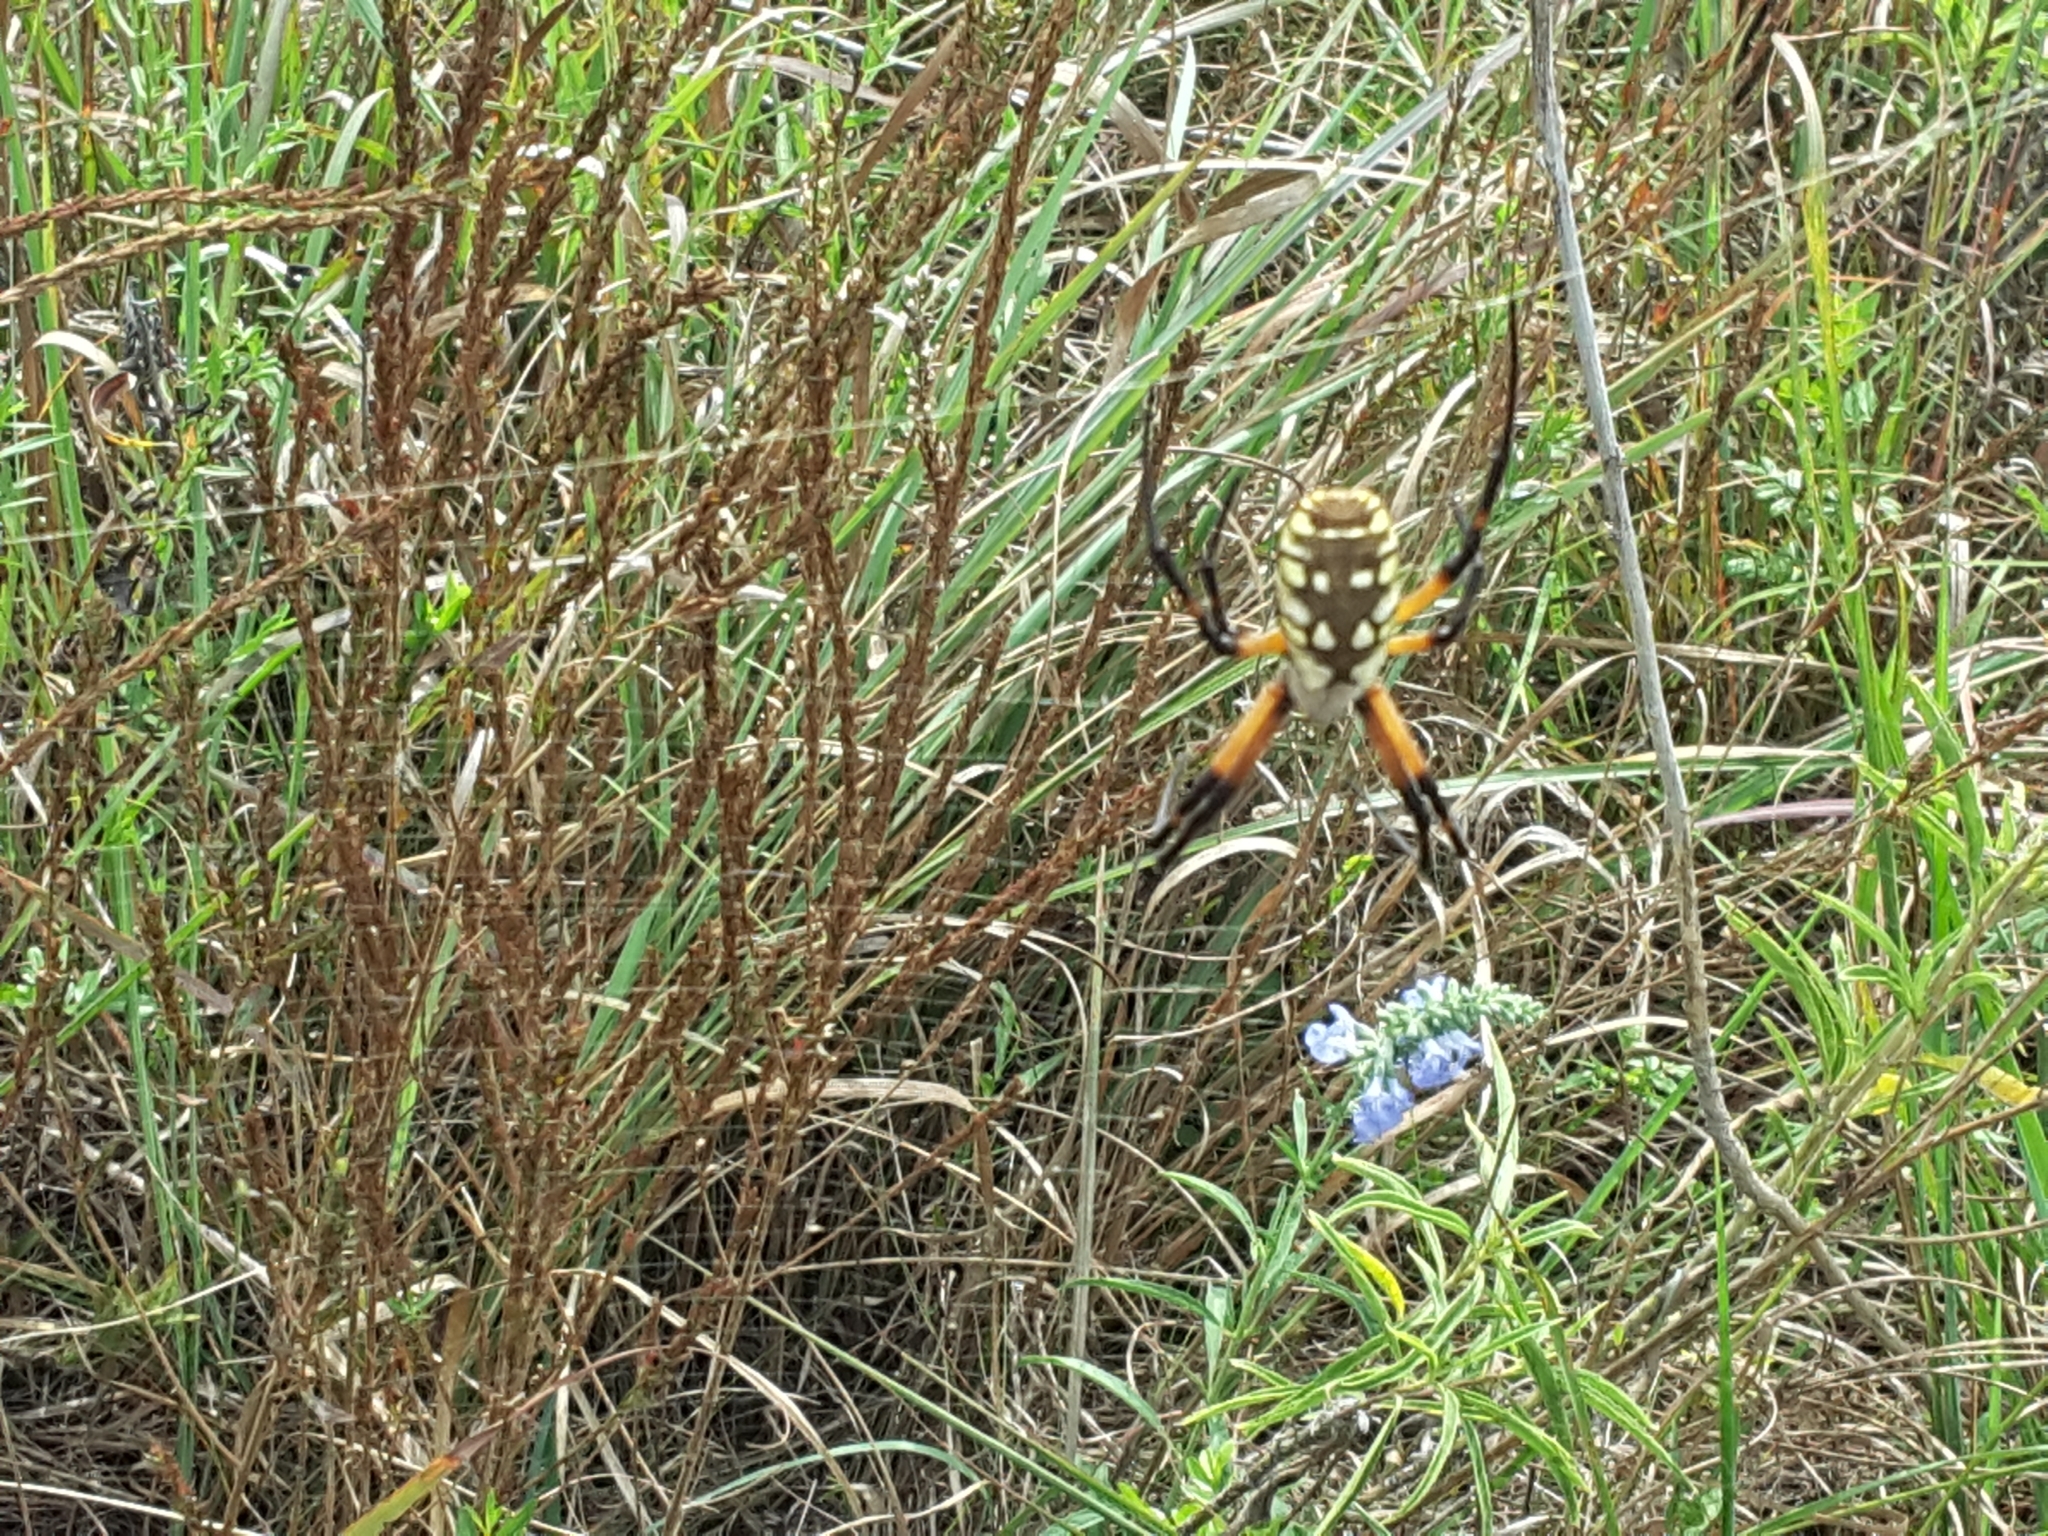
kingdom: Animalia
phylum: Arthropoda
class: Arachnida
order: Araneae
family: Araneidae
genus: Argiope
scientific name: Argiope aurantia
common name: Orb weavers
